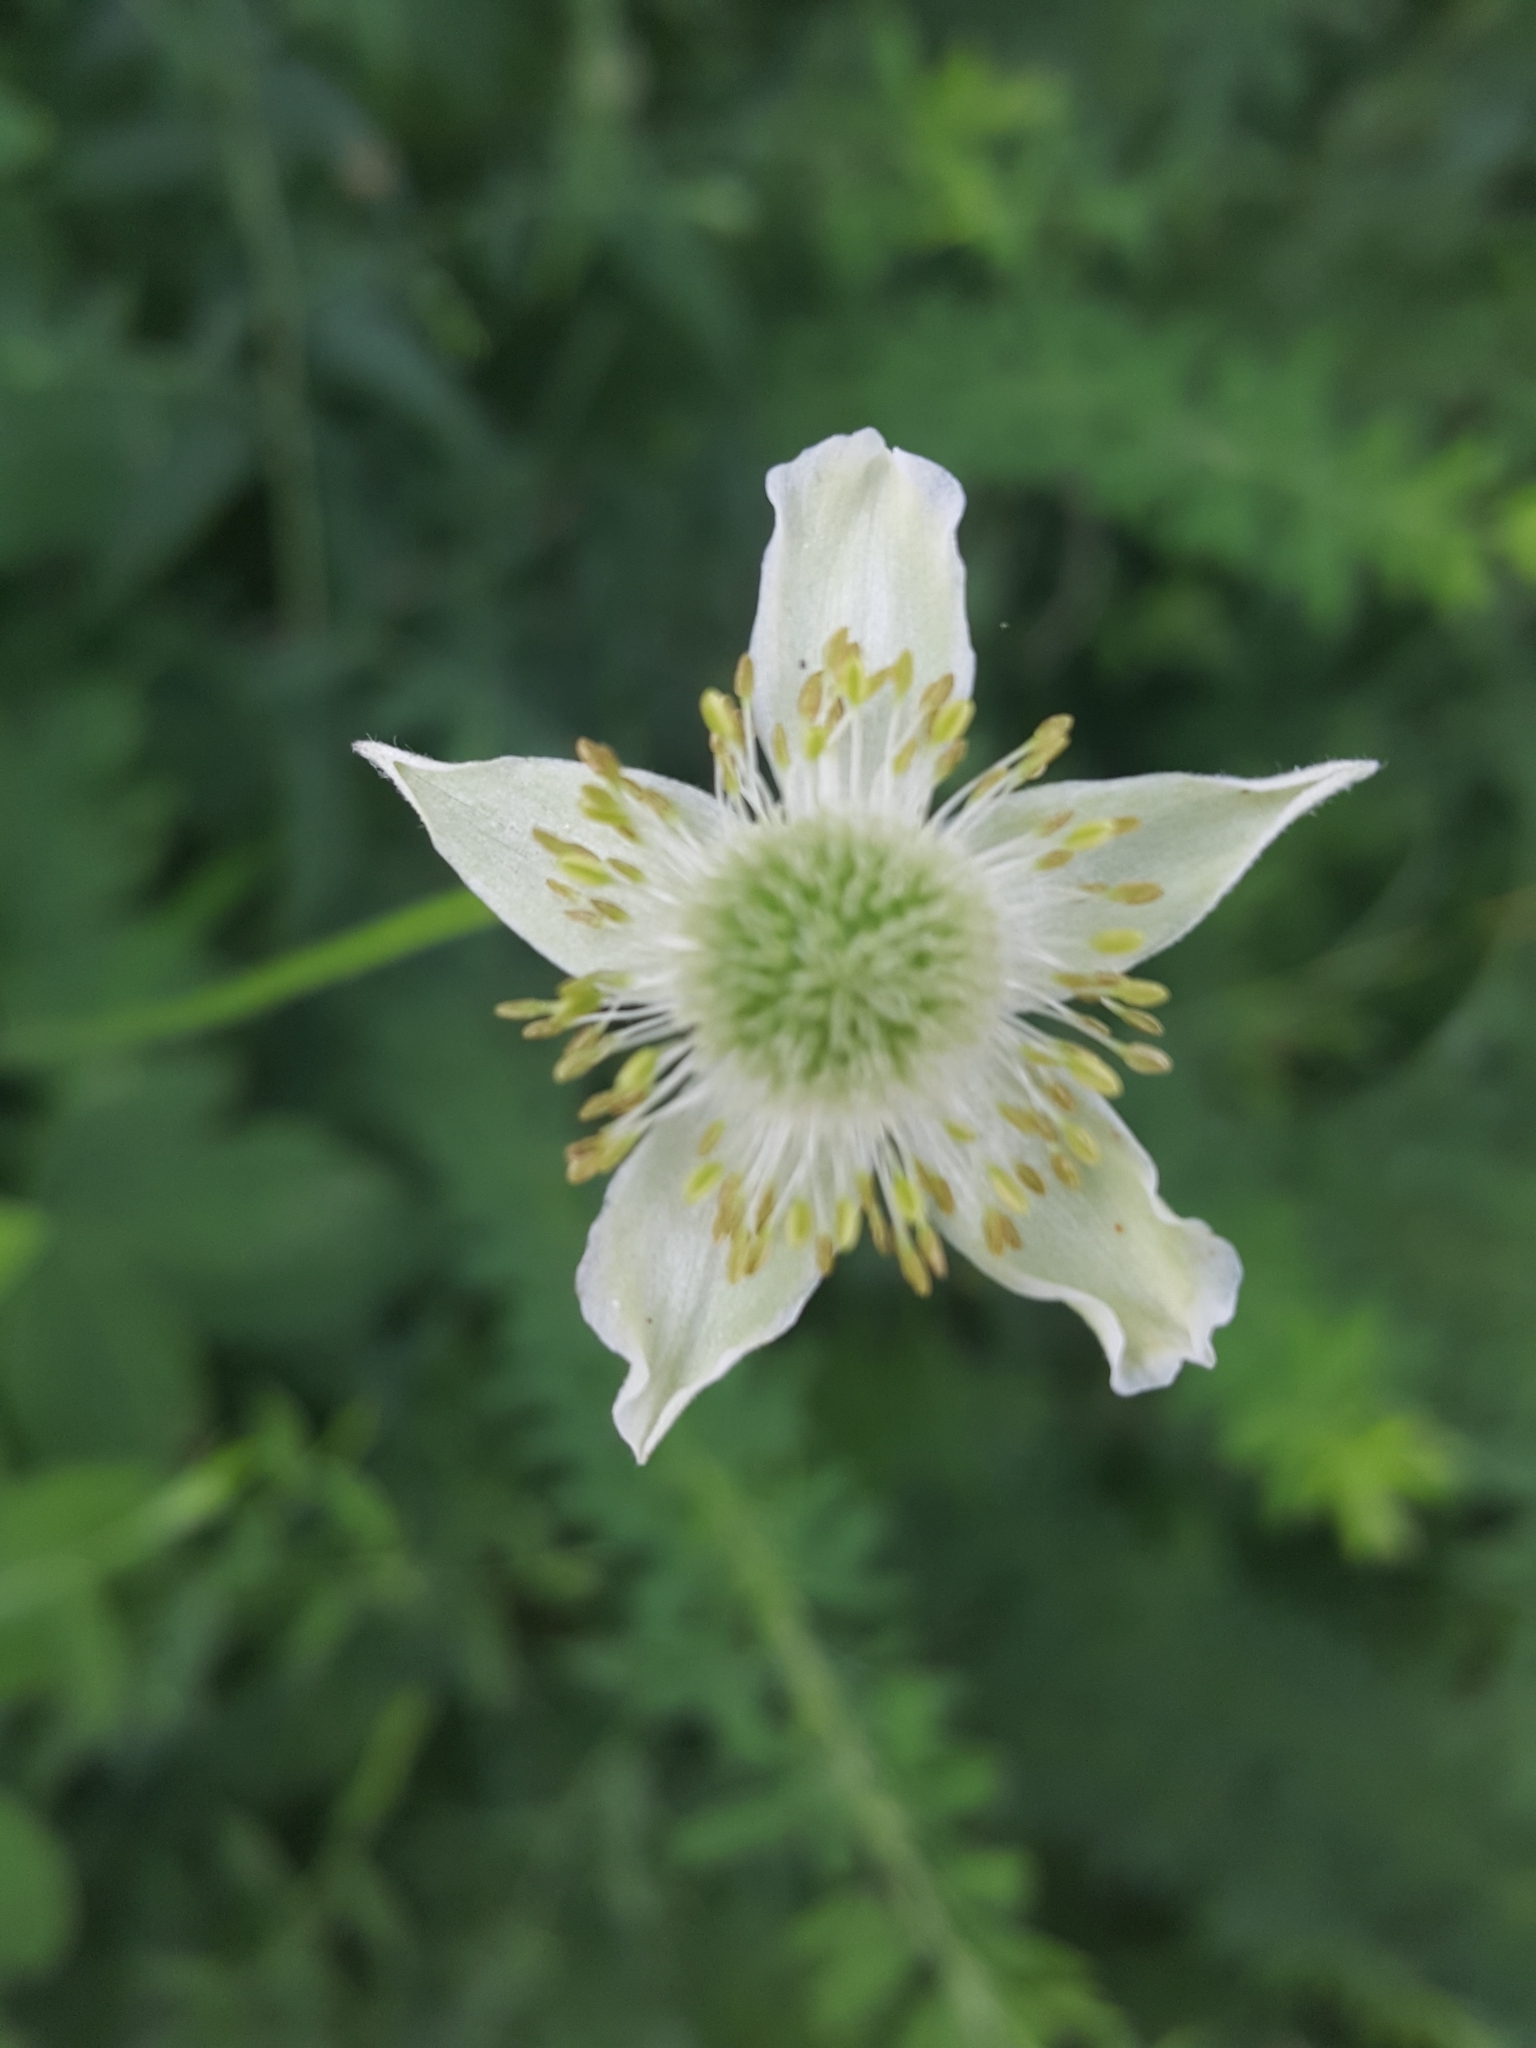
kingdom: Plantae
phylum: Tracheophyta
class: Magnoliopsida
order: Ranunculales
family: Ranunculaceae
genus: Anemone
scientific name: Anemone virginiana
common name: Tall anemone
